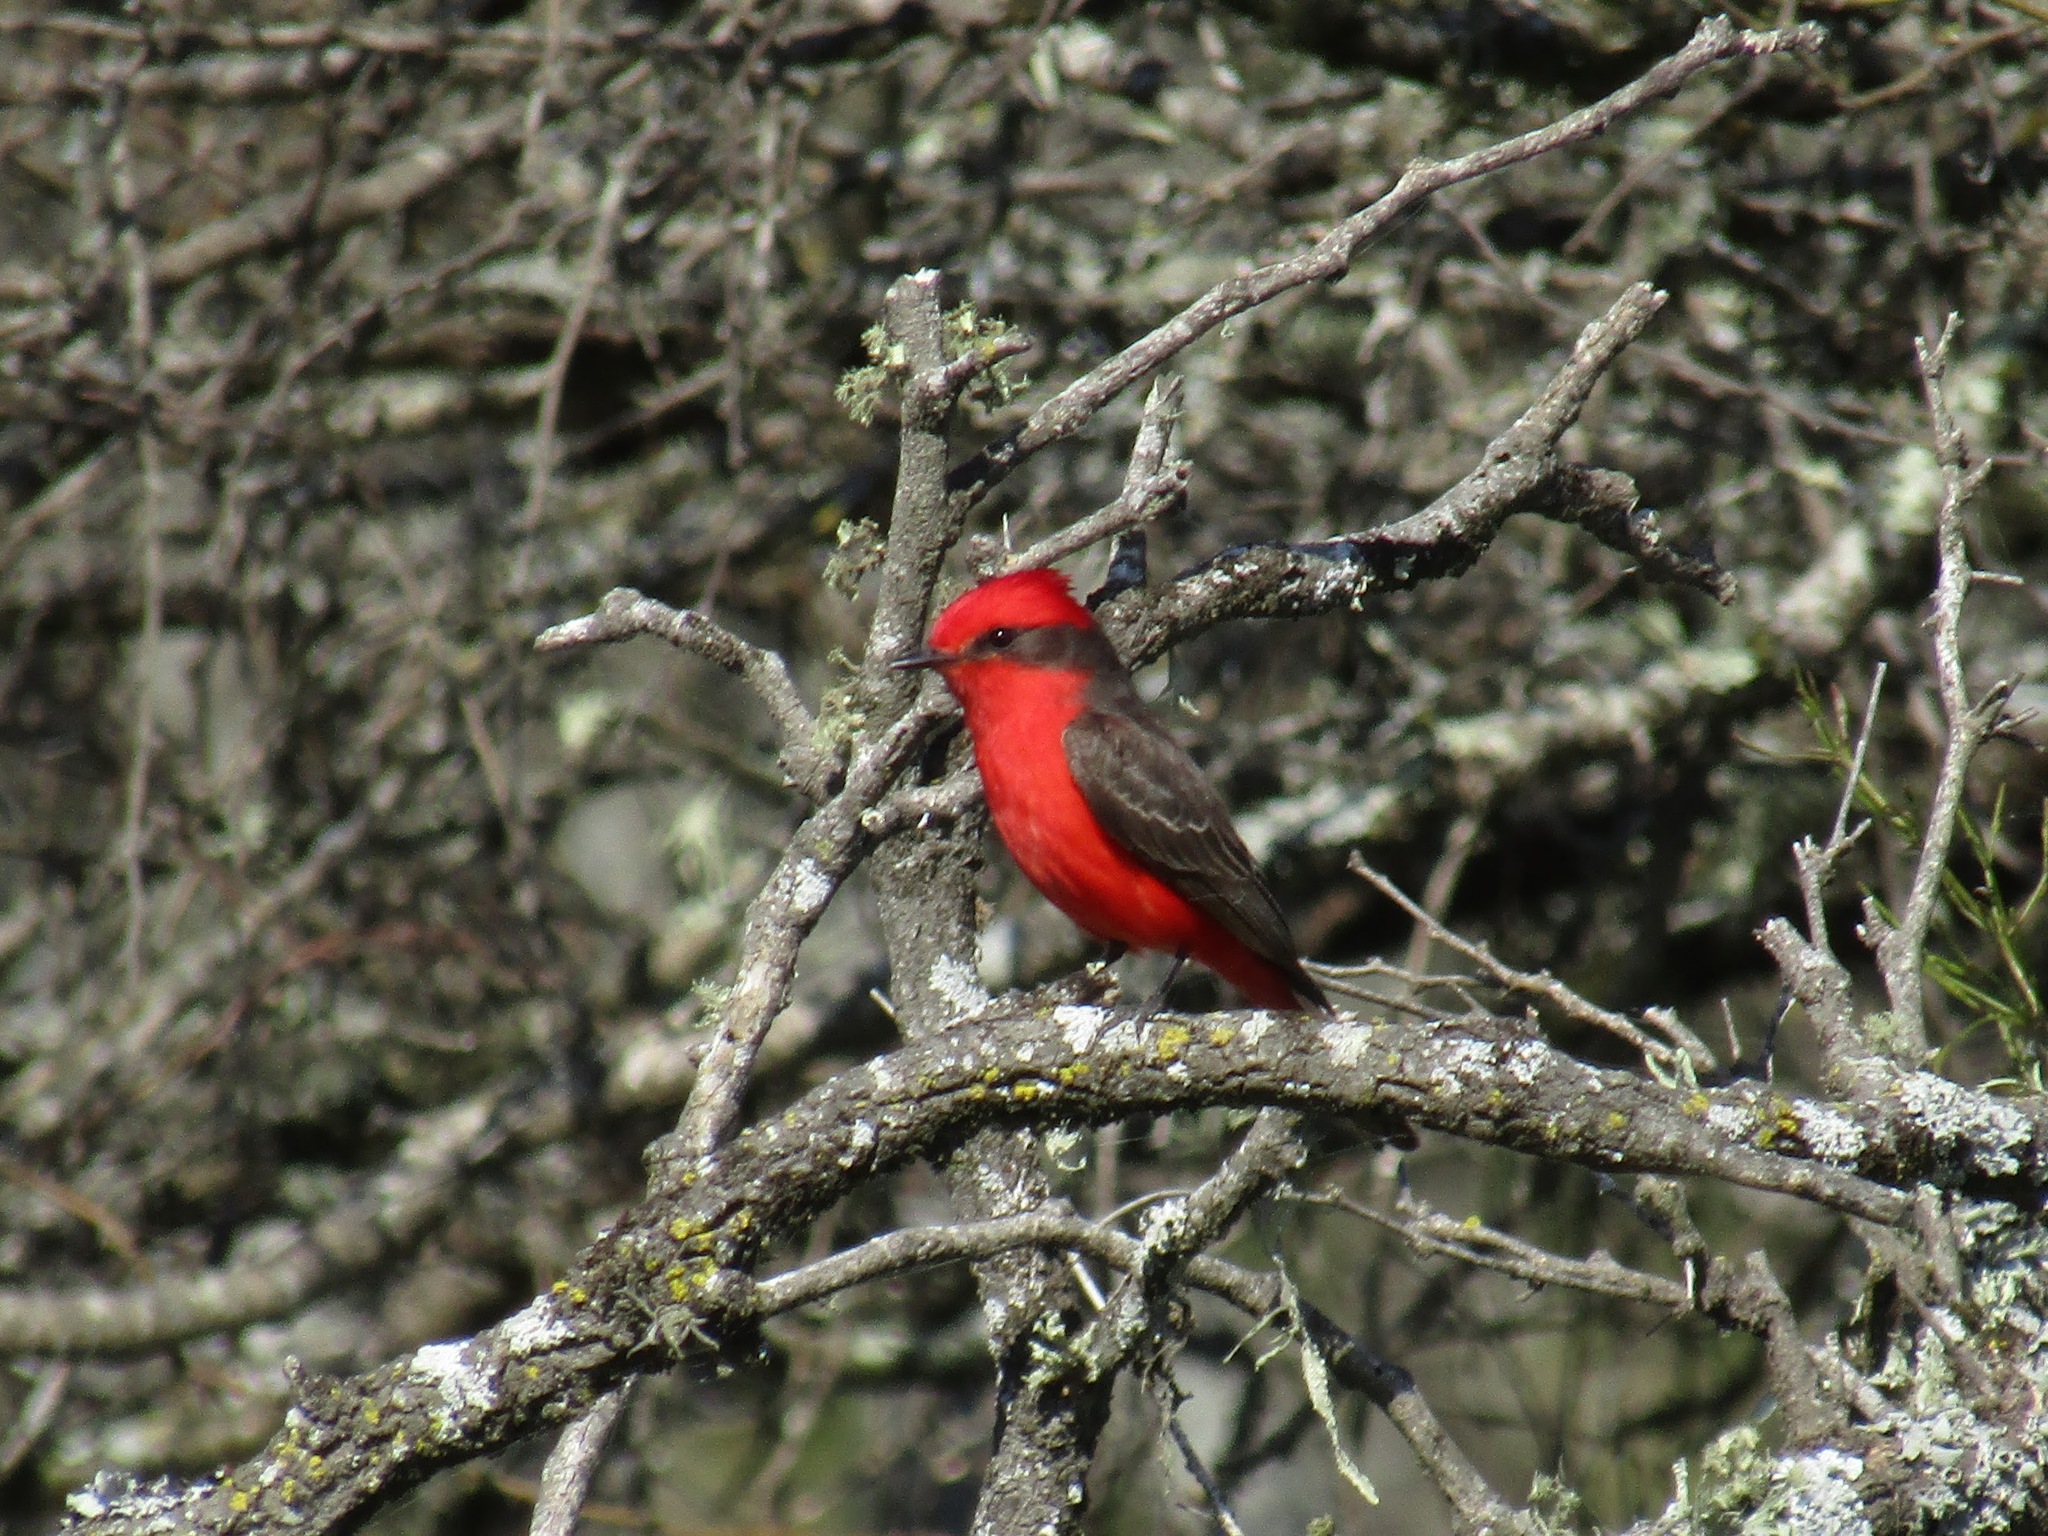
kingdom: Animalia
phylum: Chordata
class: Aves
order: Passeriformes
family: Tyrannidae
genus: Pyrocephalus
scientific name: Pyrocephalus rubinus
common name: Vermilion flycatcher
